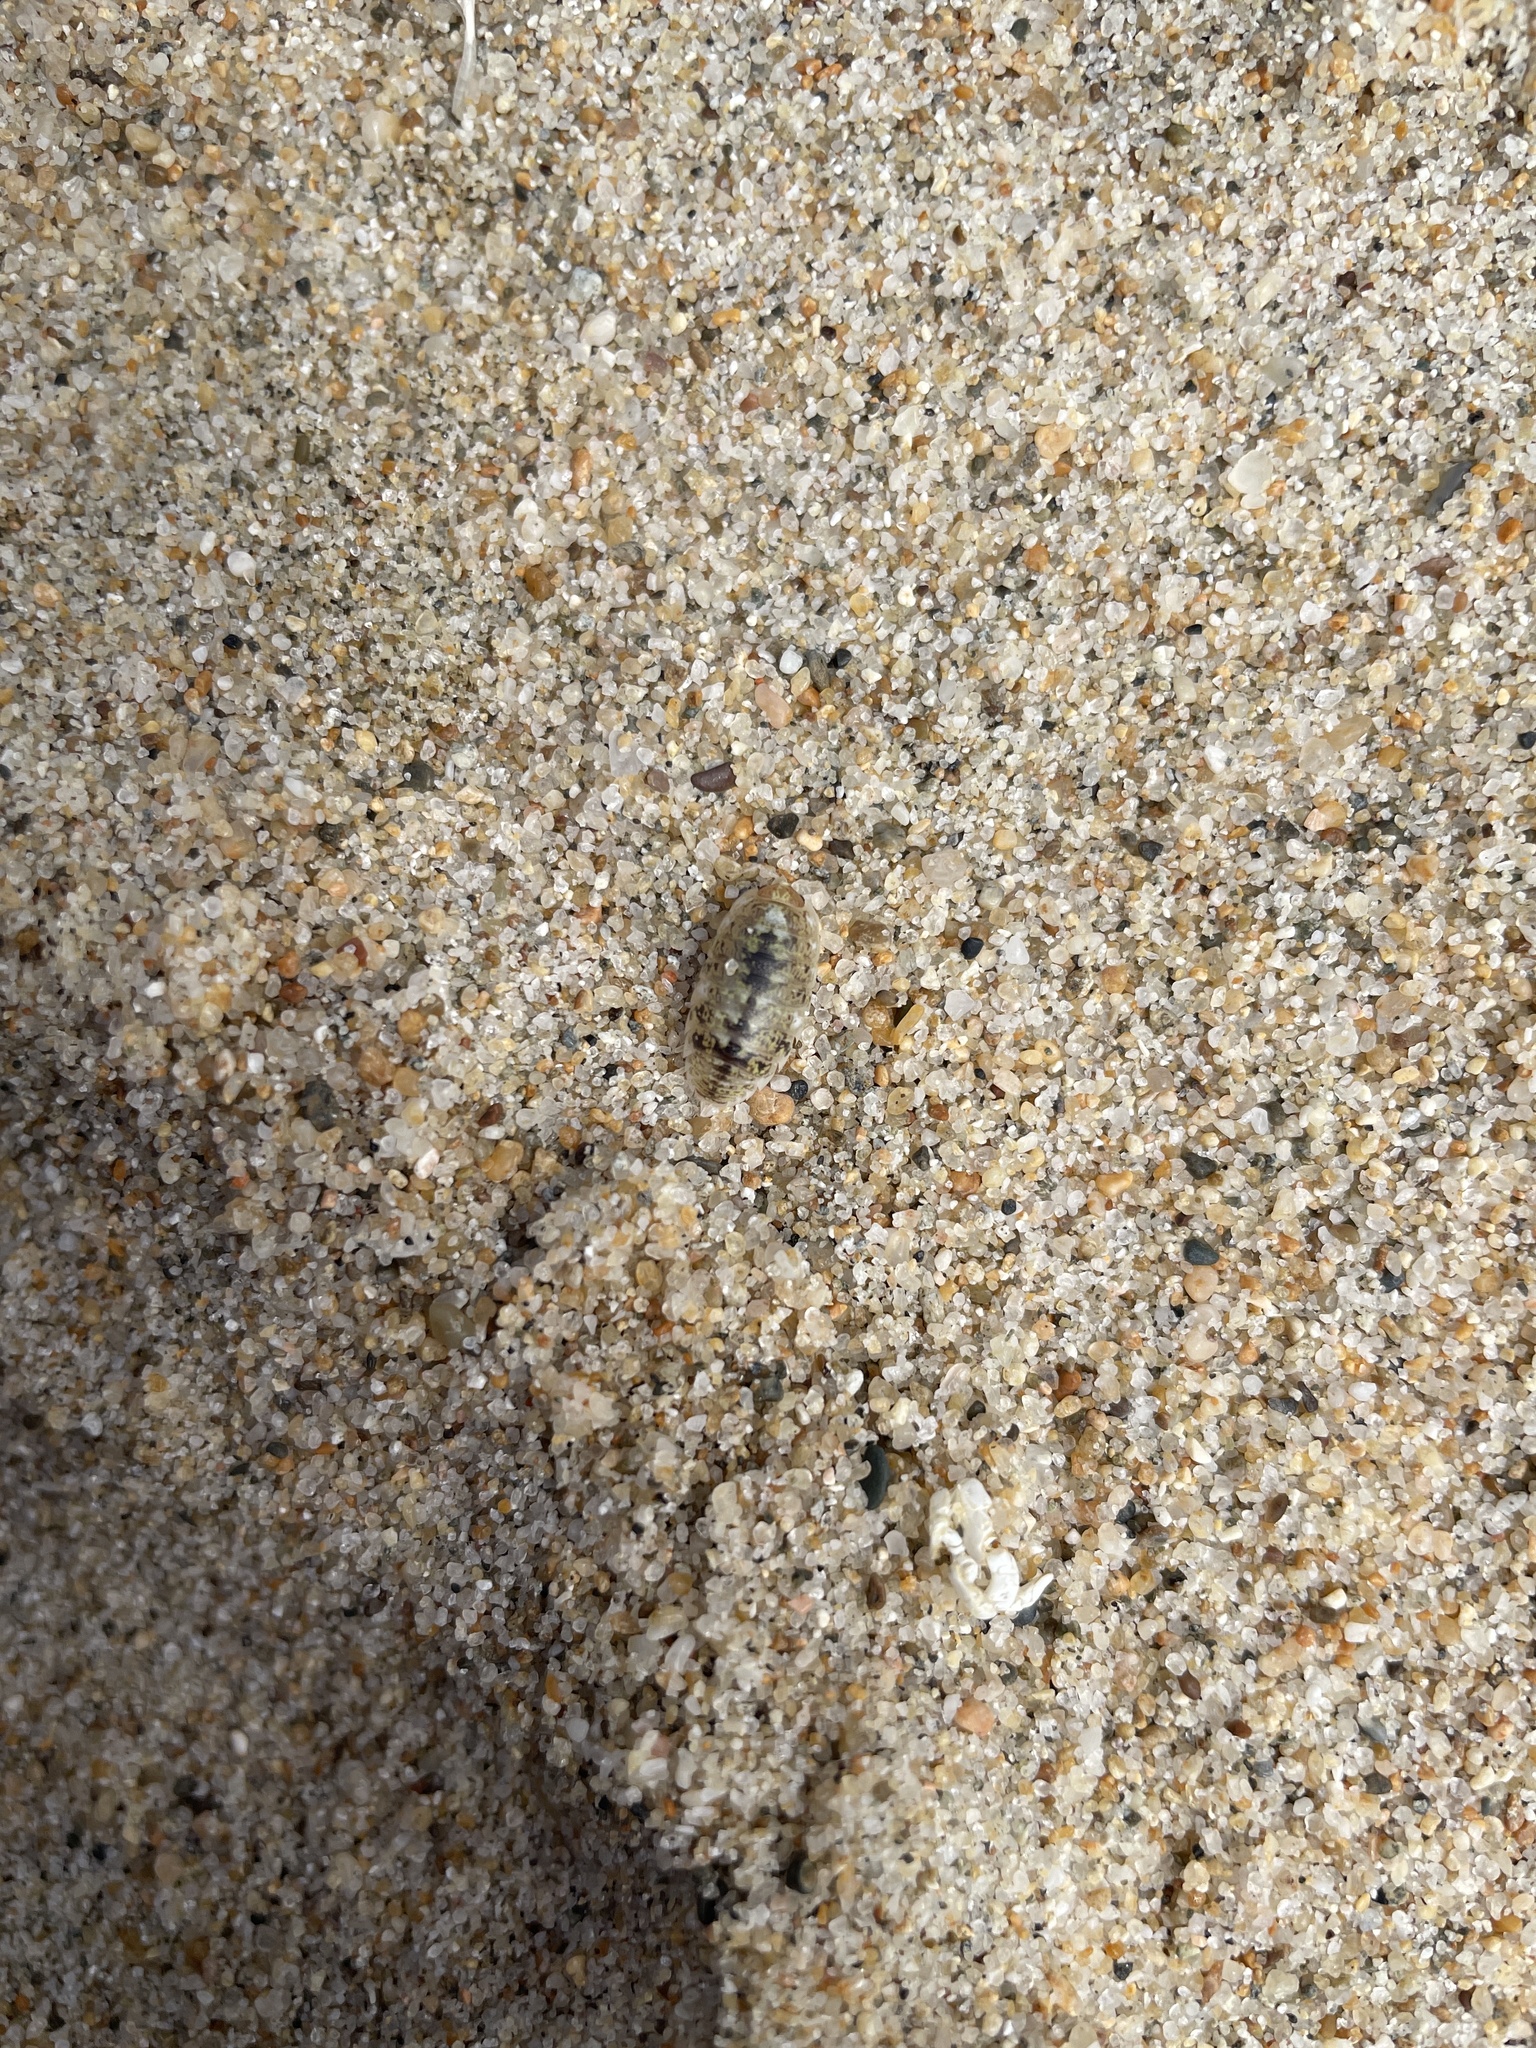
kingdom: Animalia
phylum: Arthropoda
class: Malacostraca
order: Isopoda
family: Alloniscidae
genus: Alloniscus
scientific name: Alloniscus perconvexus
